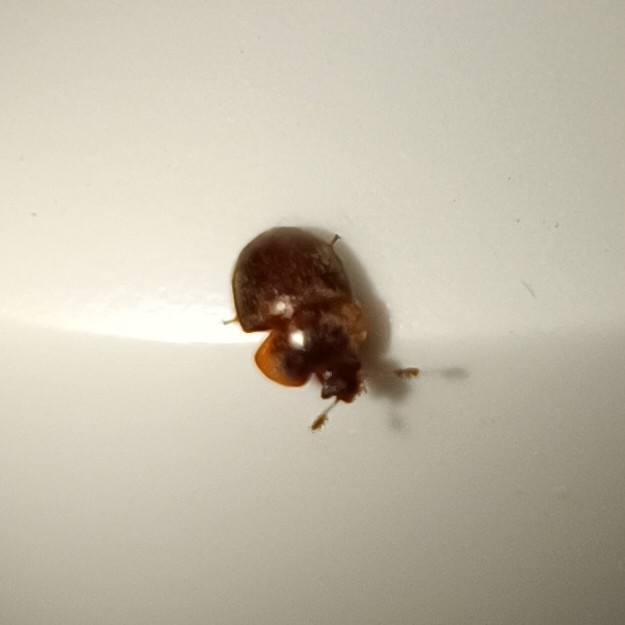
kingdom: Animalia
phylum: Arthropoda
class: Insecta
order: Coleoptera
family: Nitidulidae
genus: Cychramus
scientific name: Cychramus variegatus
